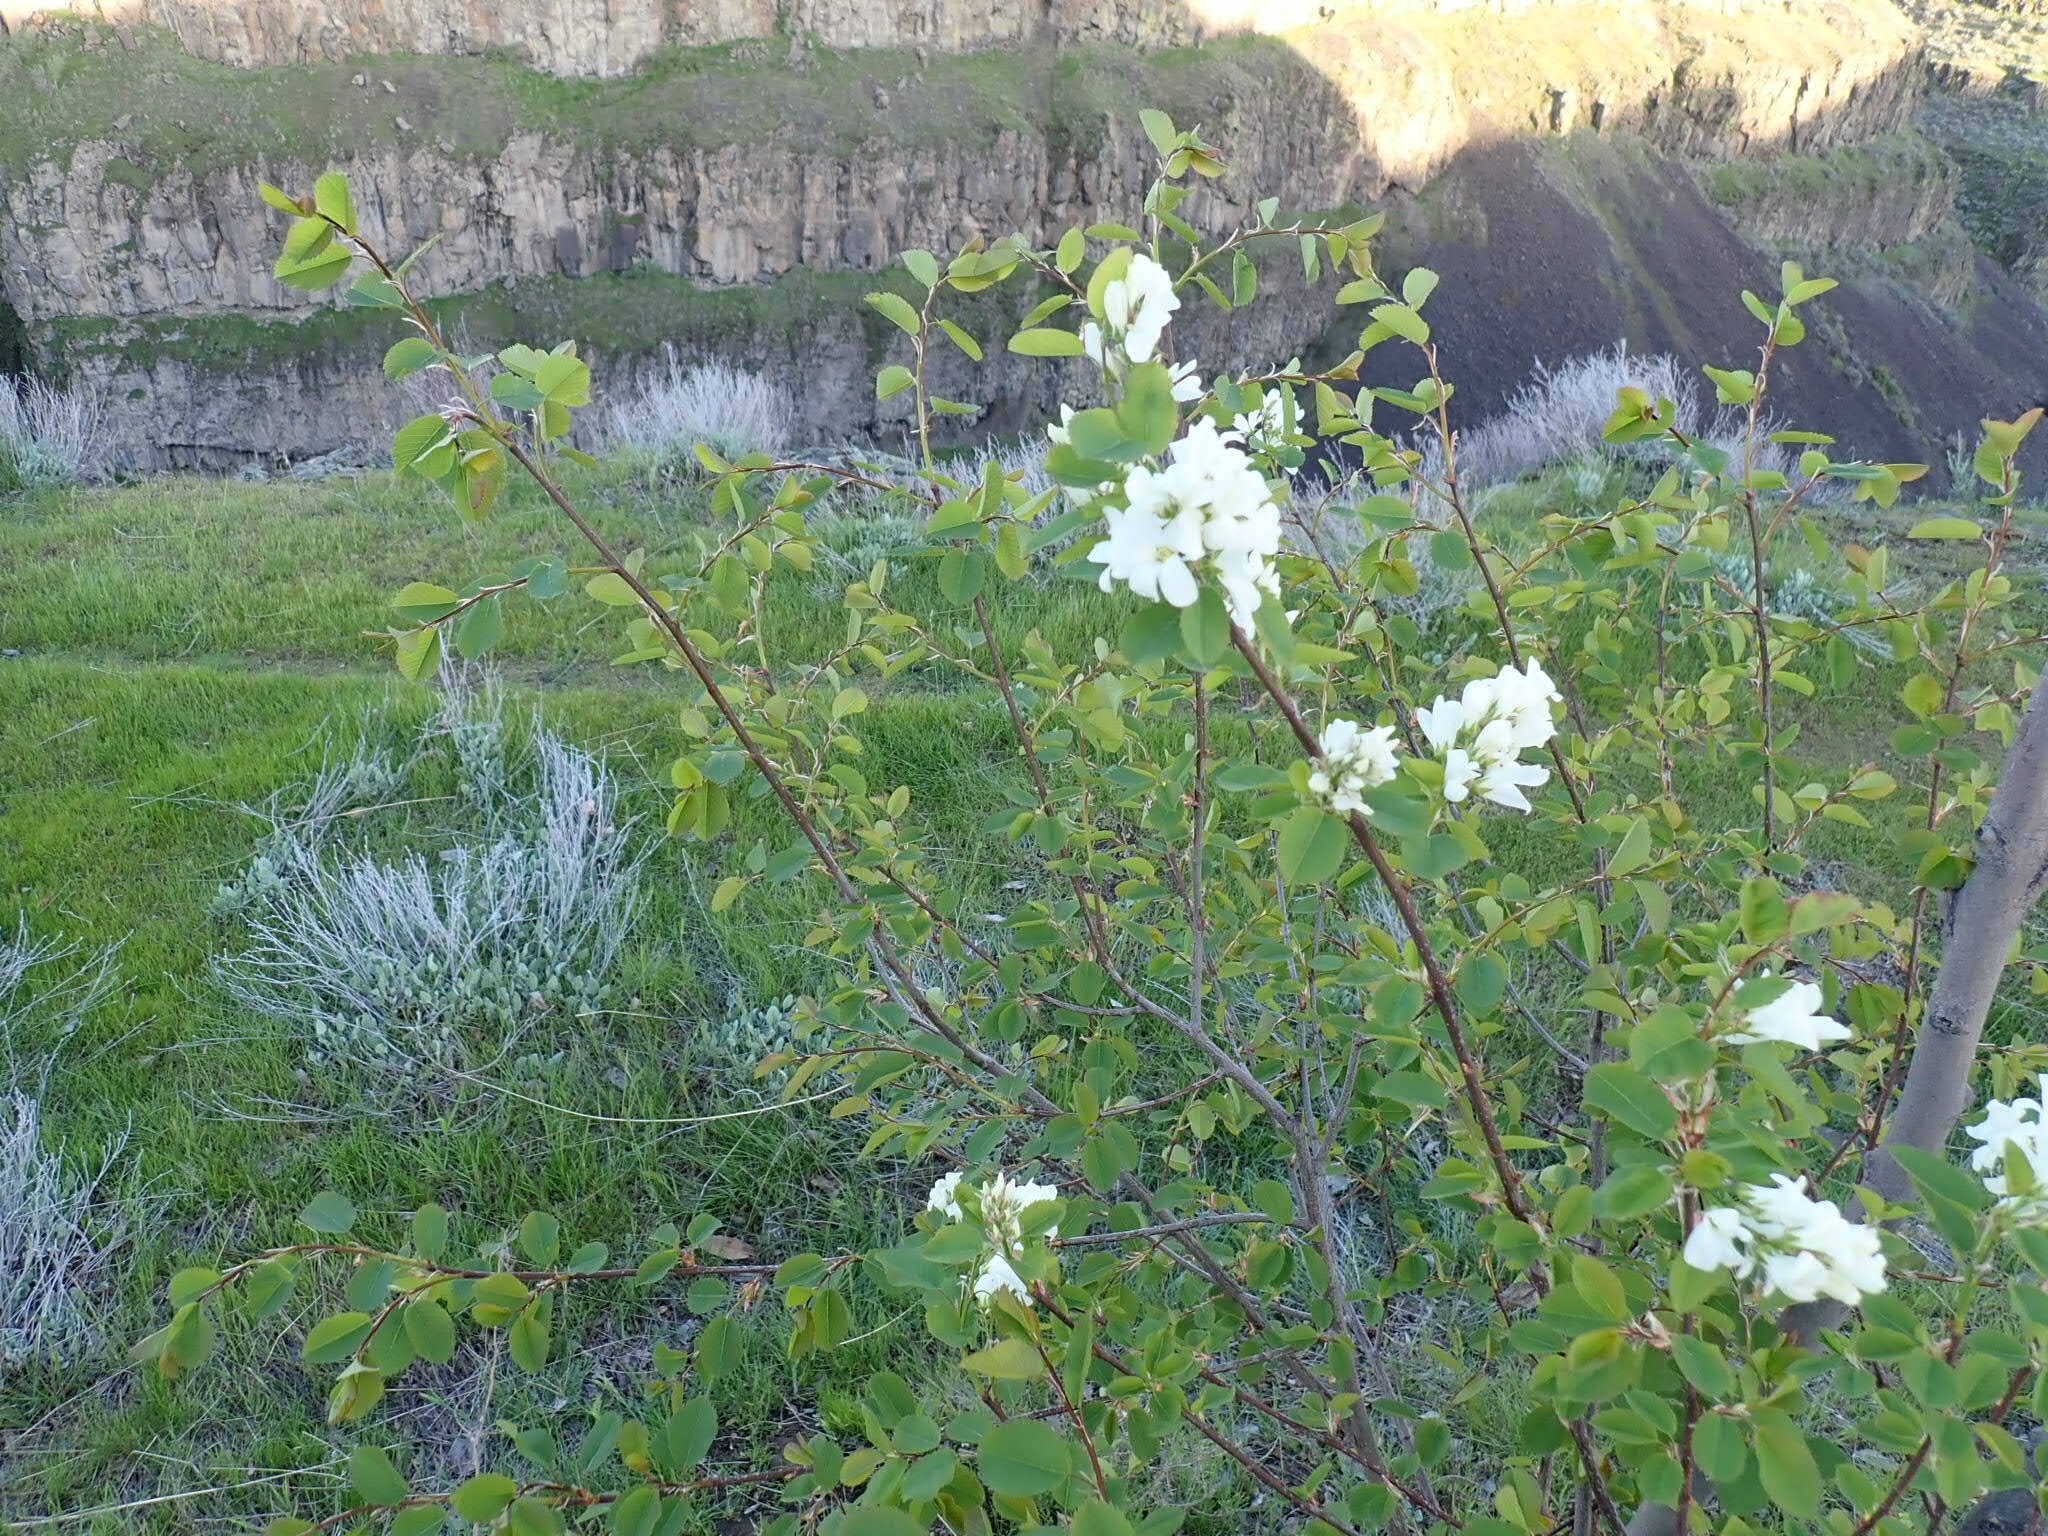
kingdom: Plantae
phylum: Tracheophyta
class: Magnoliopsida
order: Rosales
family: Rosaceae
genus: Amelanchier
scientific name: Amelanchier alnifolia
